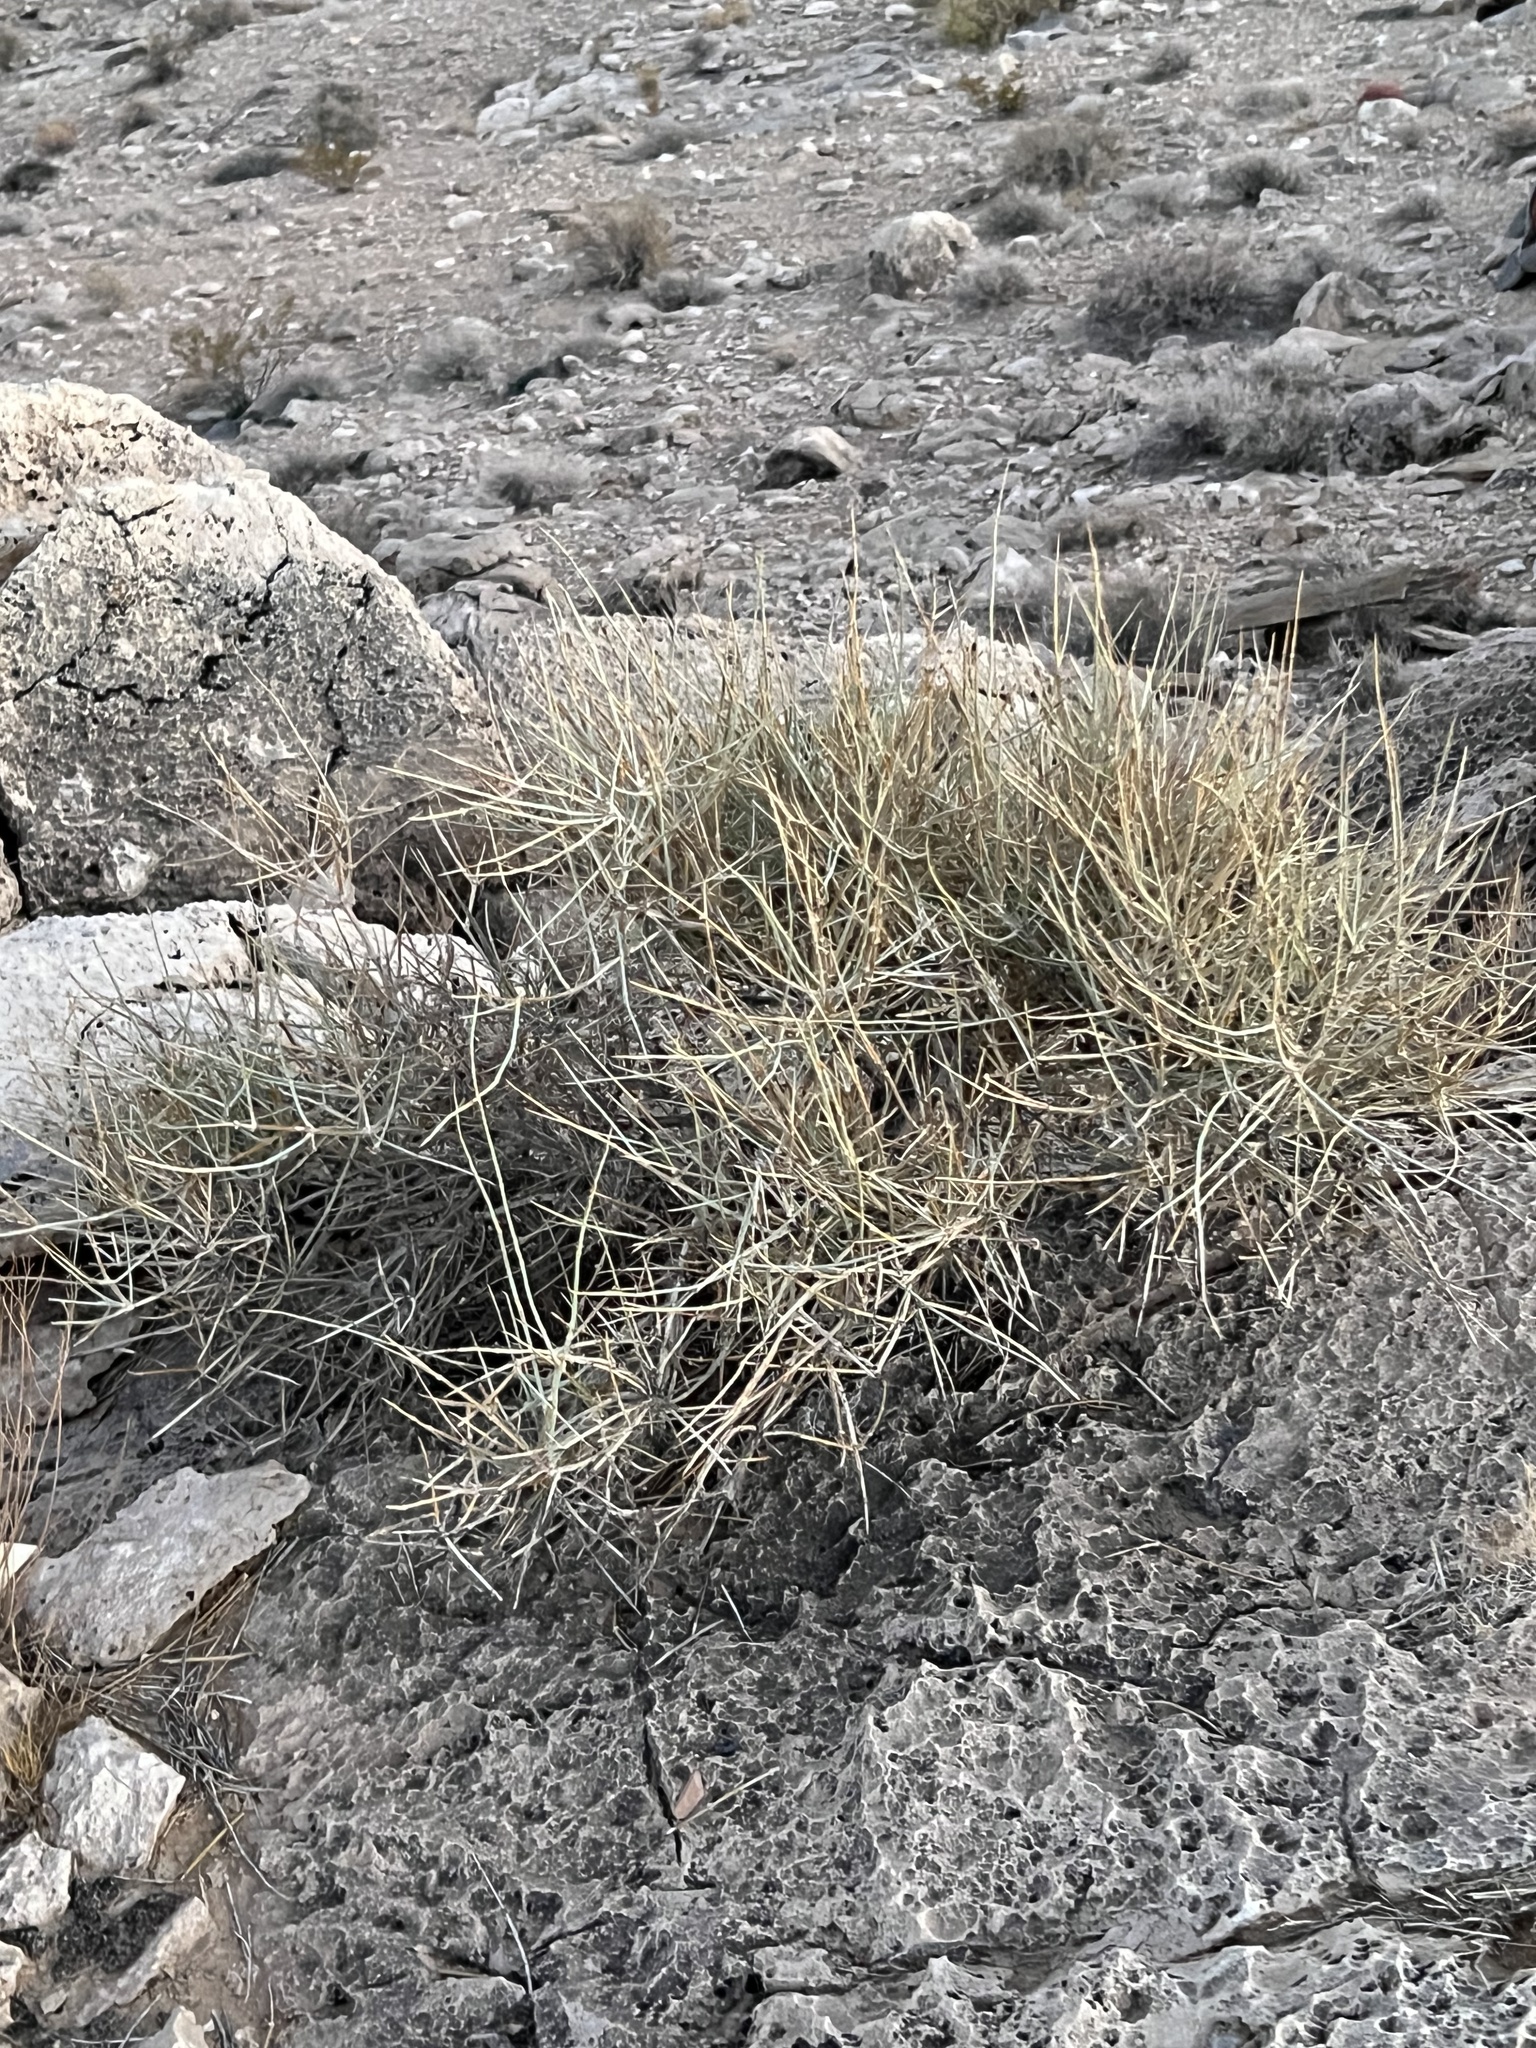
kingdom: Plantae
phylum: Tracheophyta
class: Gnetopsida
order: Ephedrales
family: Ephedraceae
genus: Ephedra
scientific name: Ephedra nevadensis
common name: Gray ephedra
